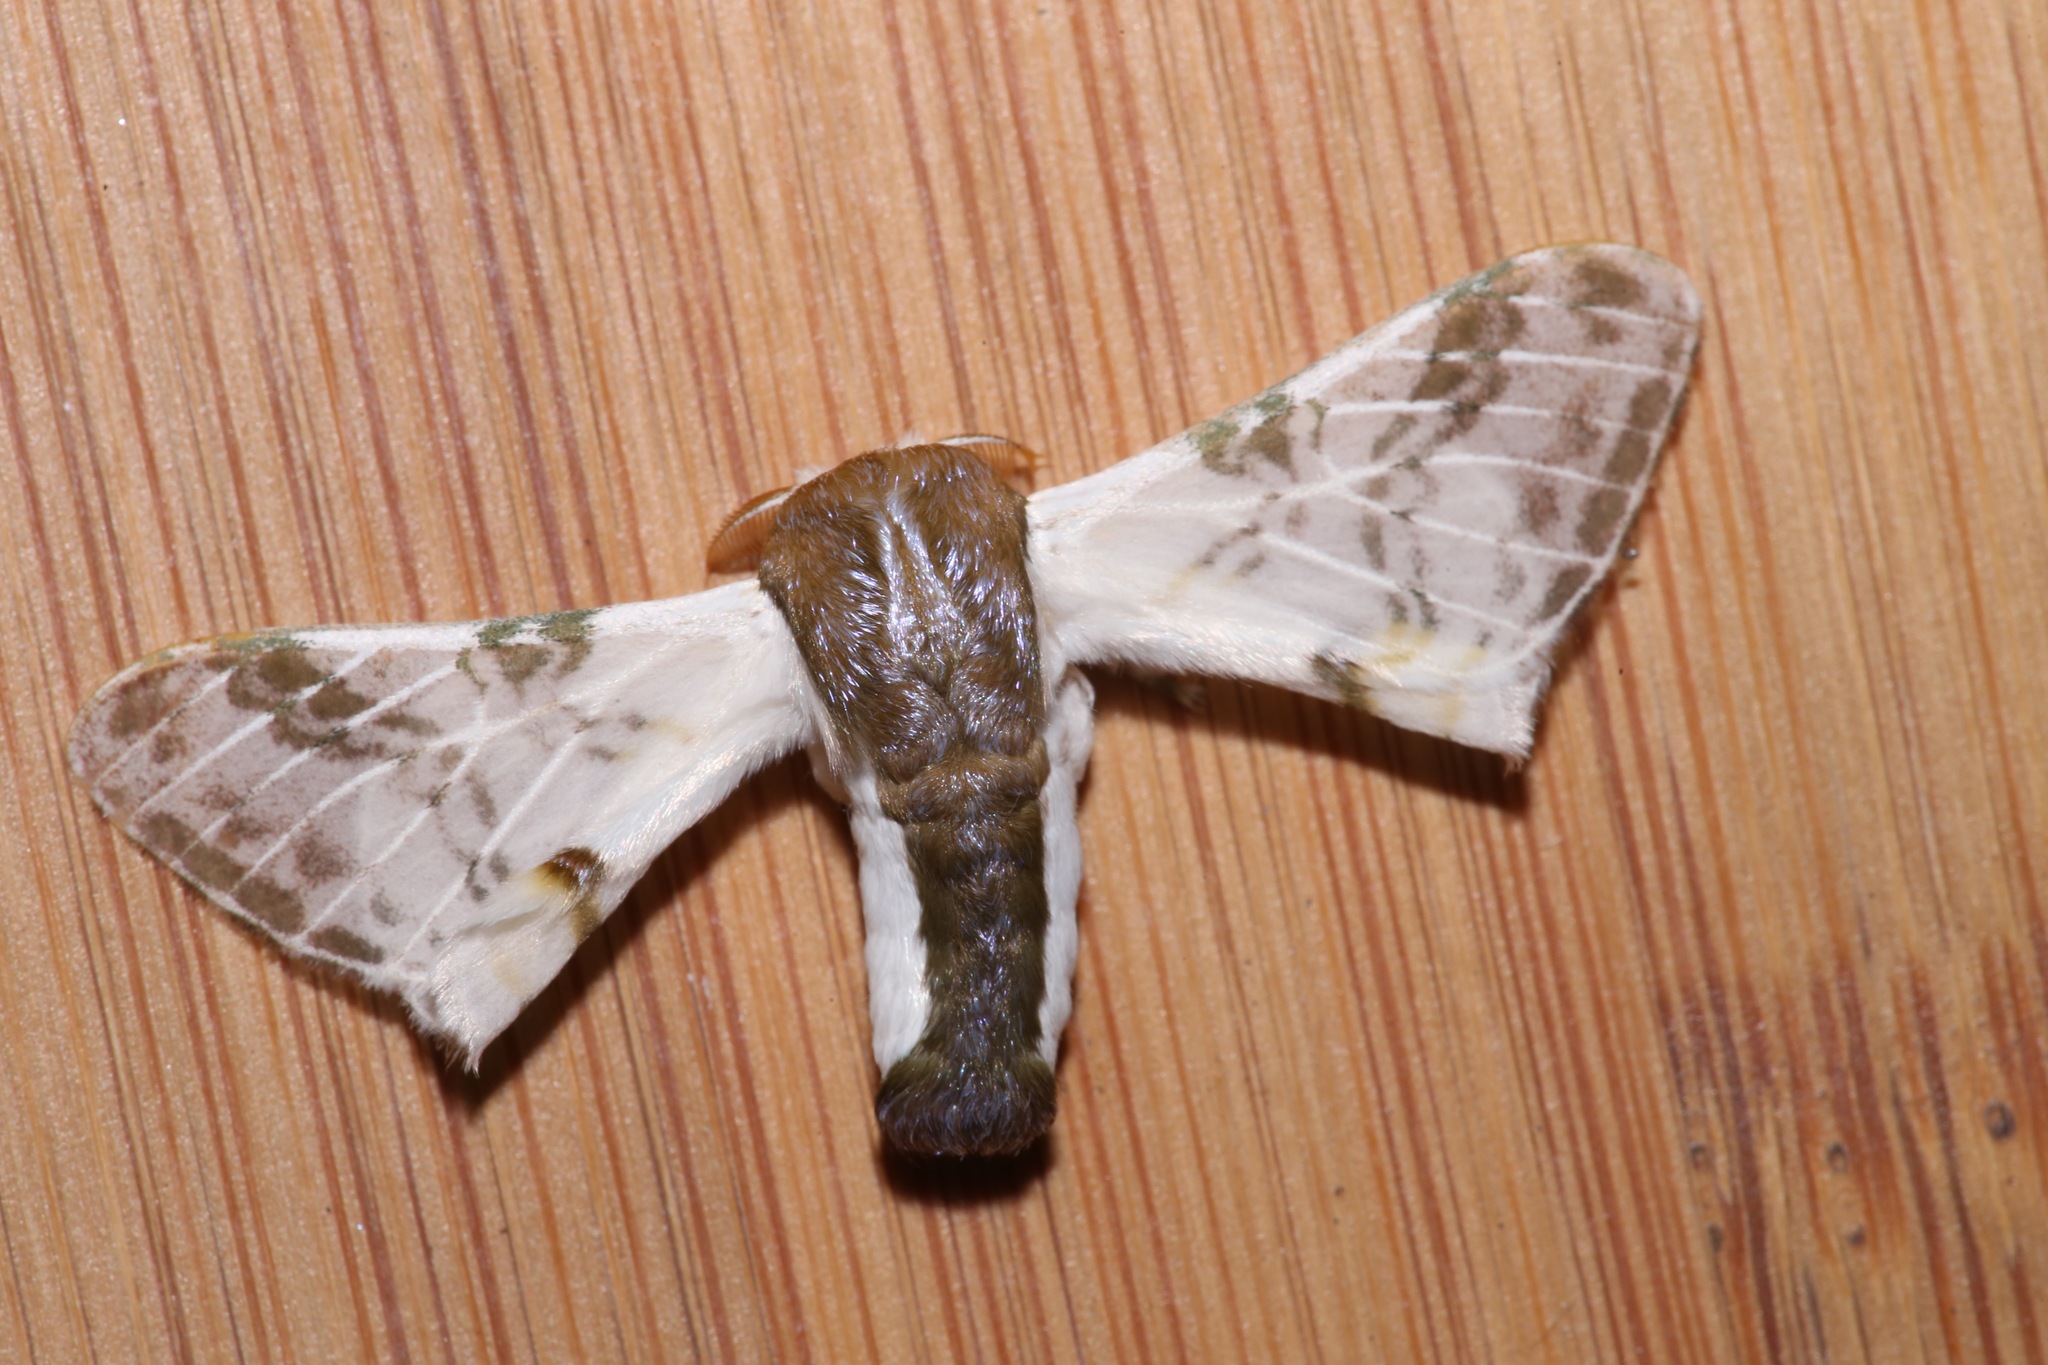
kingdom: Animalia
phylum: Arthropoda
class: Insecta
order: Lepidoptera
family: Bombycidae
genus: Colla
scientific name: Colla rhodope
